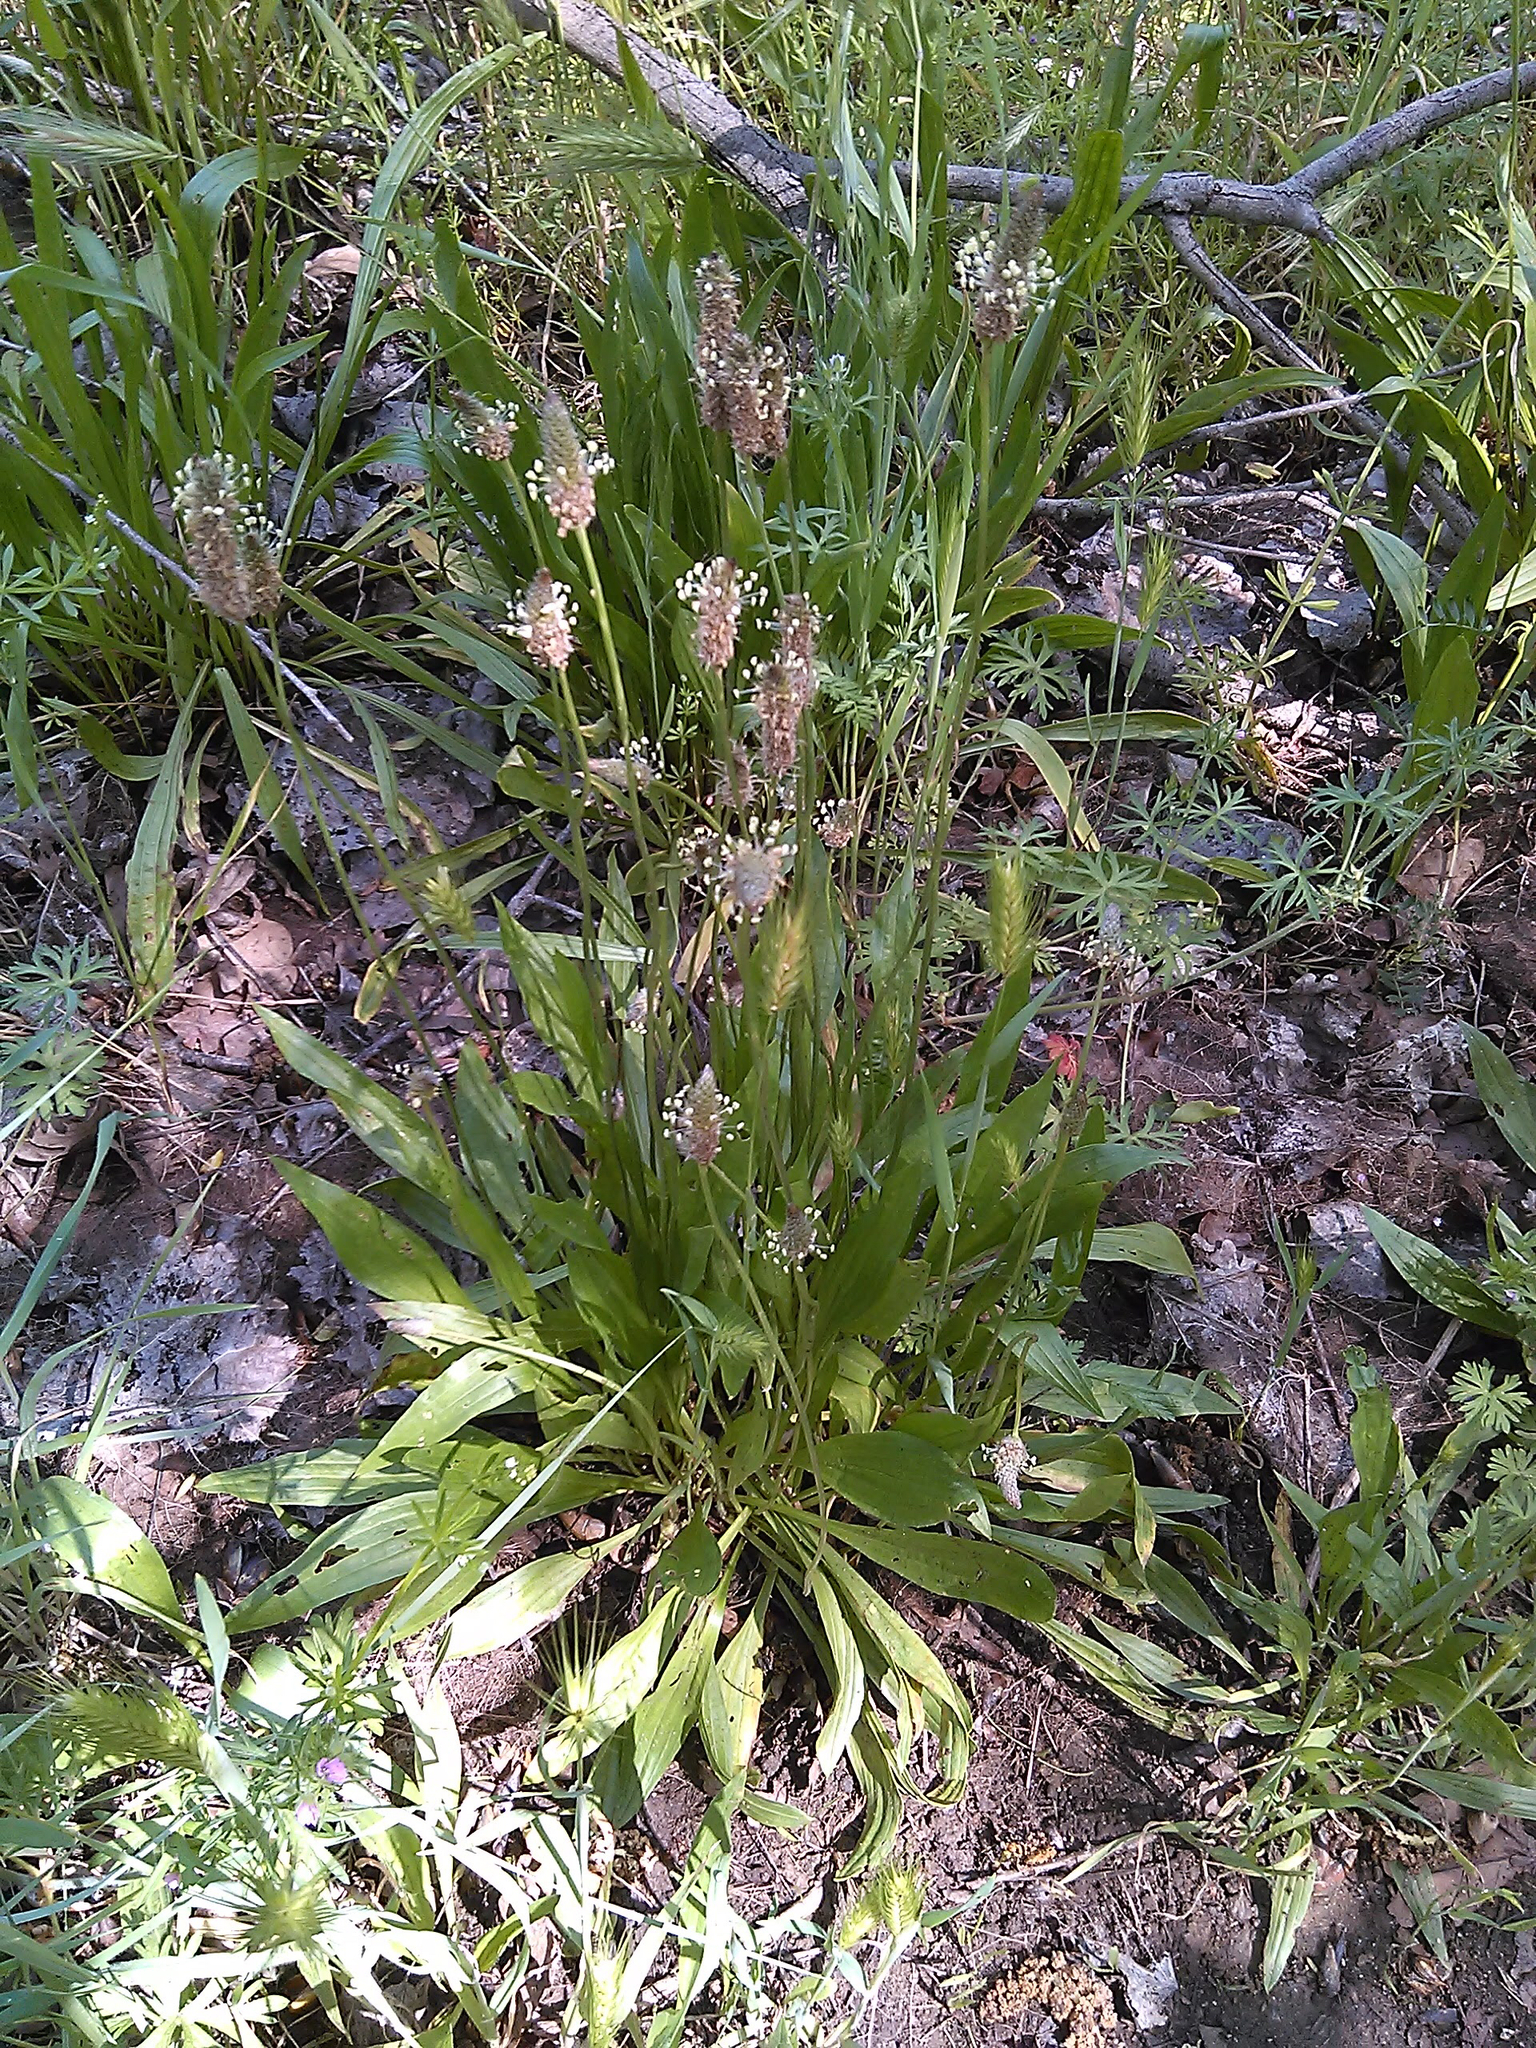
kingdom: Plantae
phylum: Tracheophyta
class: Magnoliopsida
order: Lamiales
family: Plantaginaceae
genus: Plantago
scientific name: Plantago lanceolata
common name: Ribwort plantain
